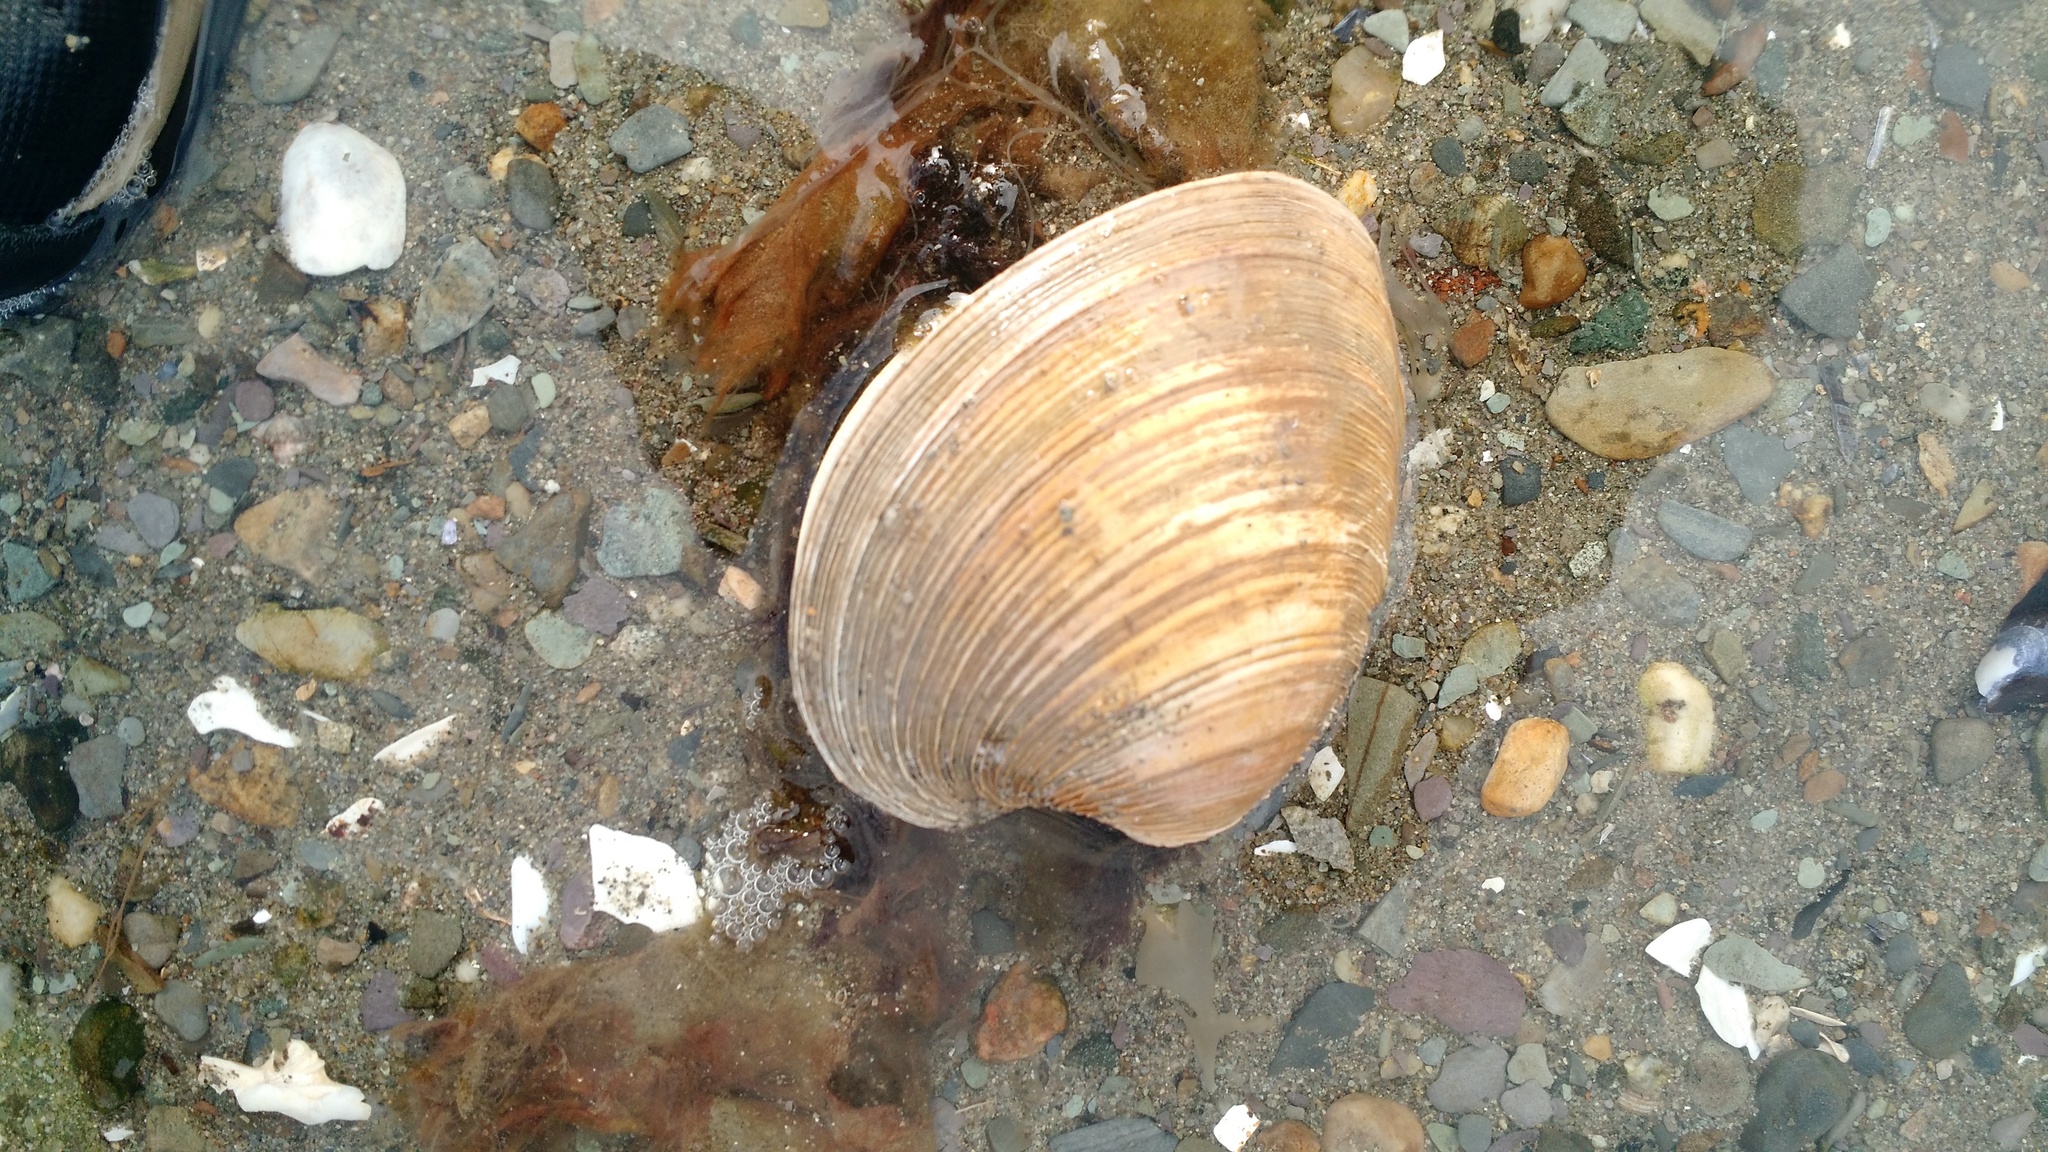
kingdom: Animalia
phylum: Mollusca
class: Bivalvia
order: Venerida
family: Veneridae
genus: Mercenaria
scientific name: Mercenaria mercenaria
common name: American hard-shelled clam
